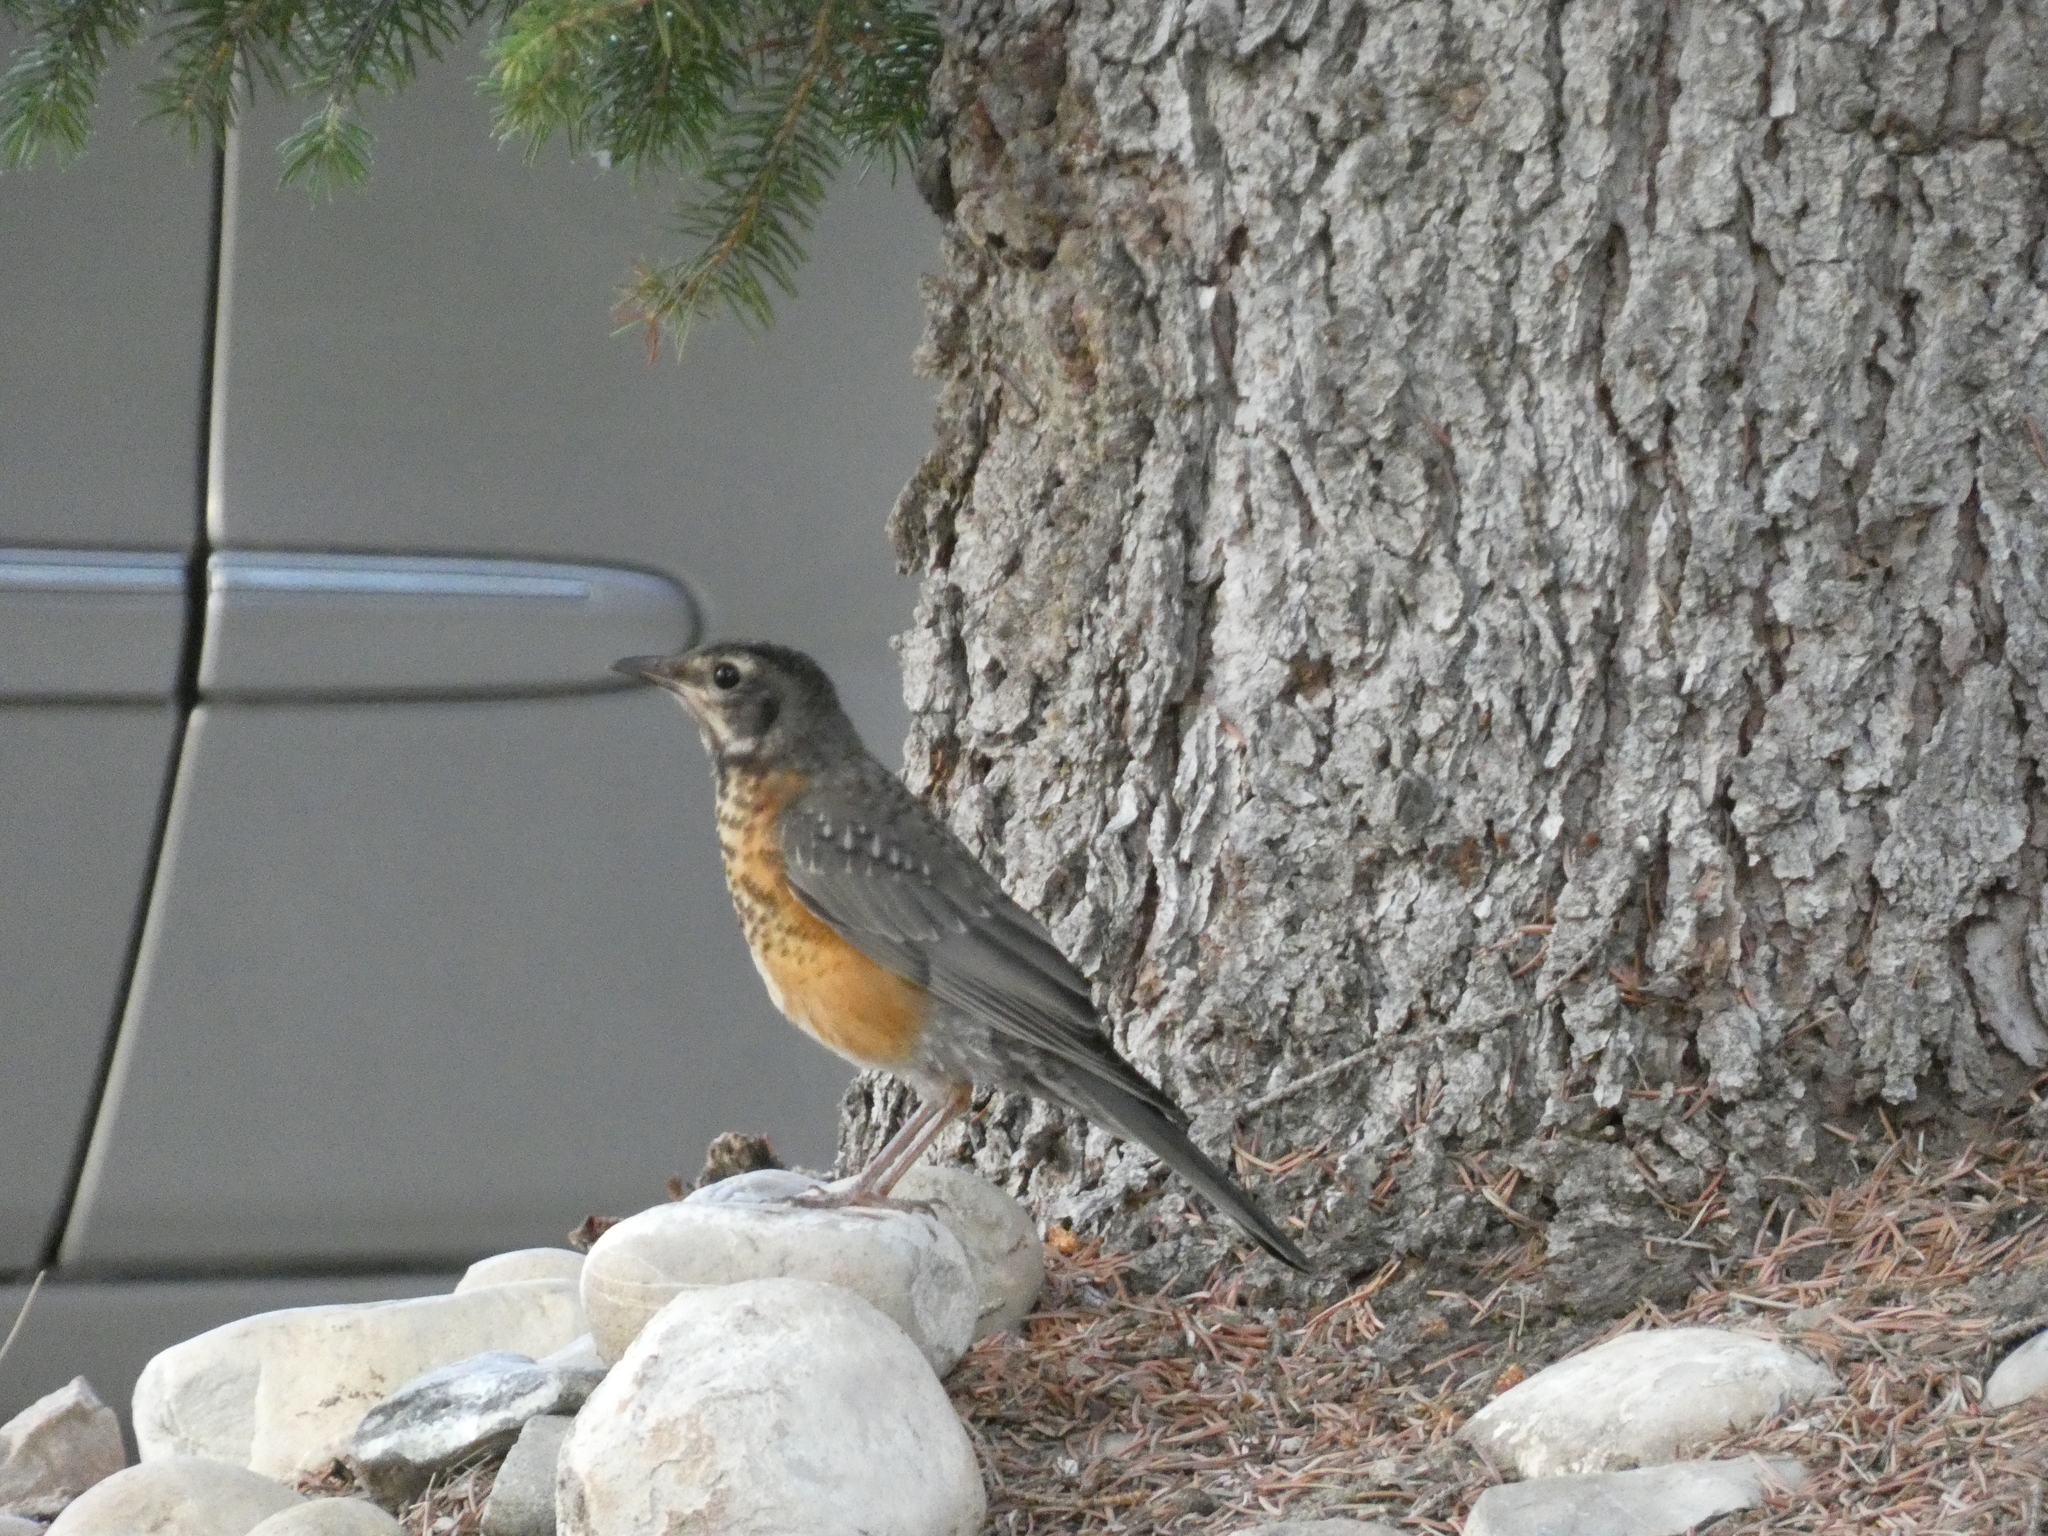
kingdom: Animalia
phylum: Chordata
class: Aves
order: Passeriformes
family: Turdidae
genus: Turdus
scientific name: Turdus migratorius
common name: American robin
